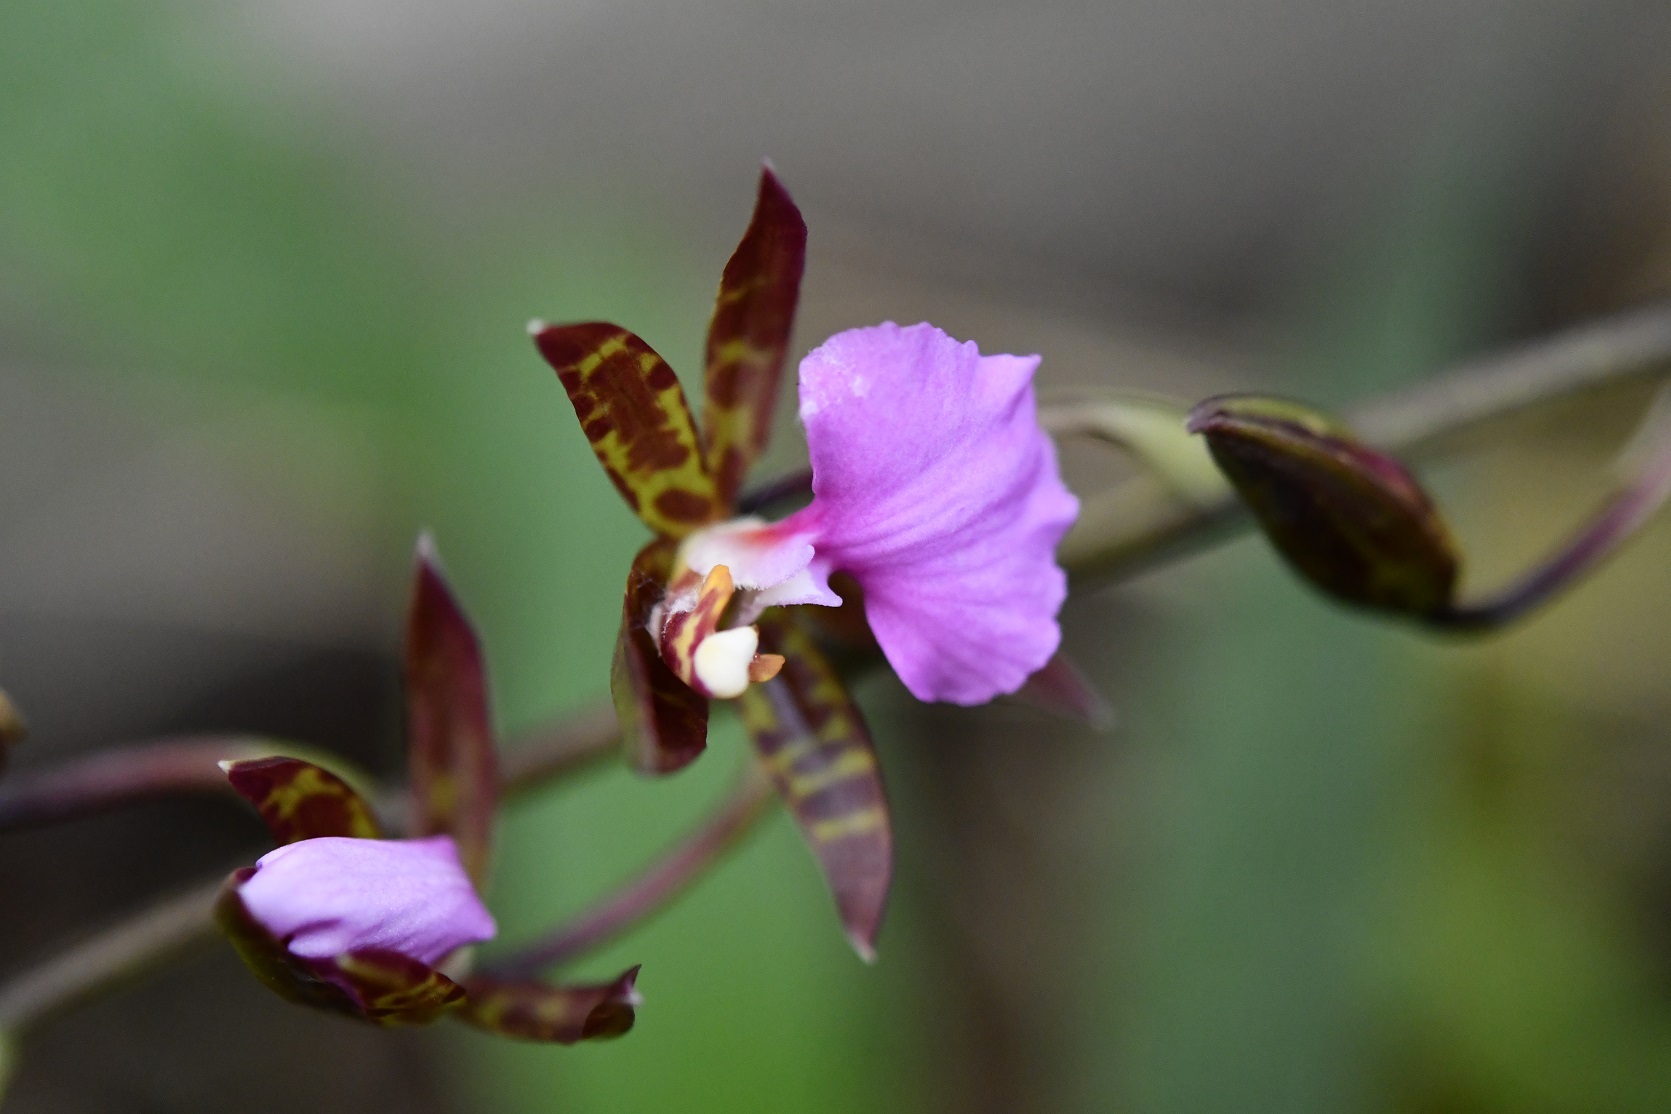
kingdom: Plantae
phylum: Tracheophyta
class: Liliopsida
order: Asparagales
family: Orchidaceae
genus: Rhynchostele
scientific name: Rhynchostele bictoniensis
